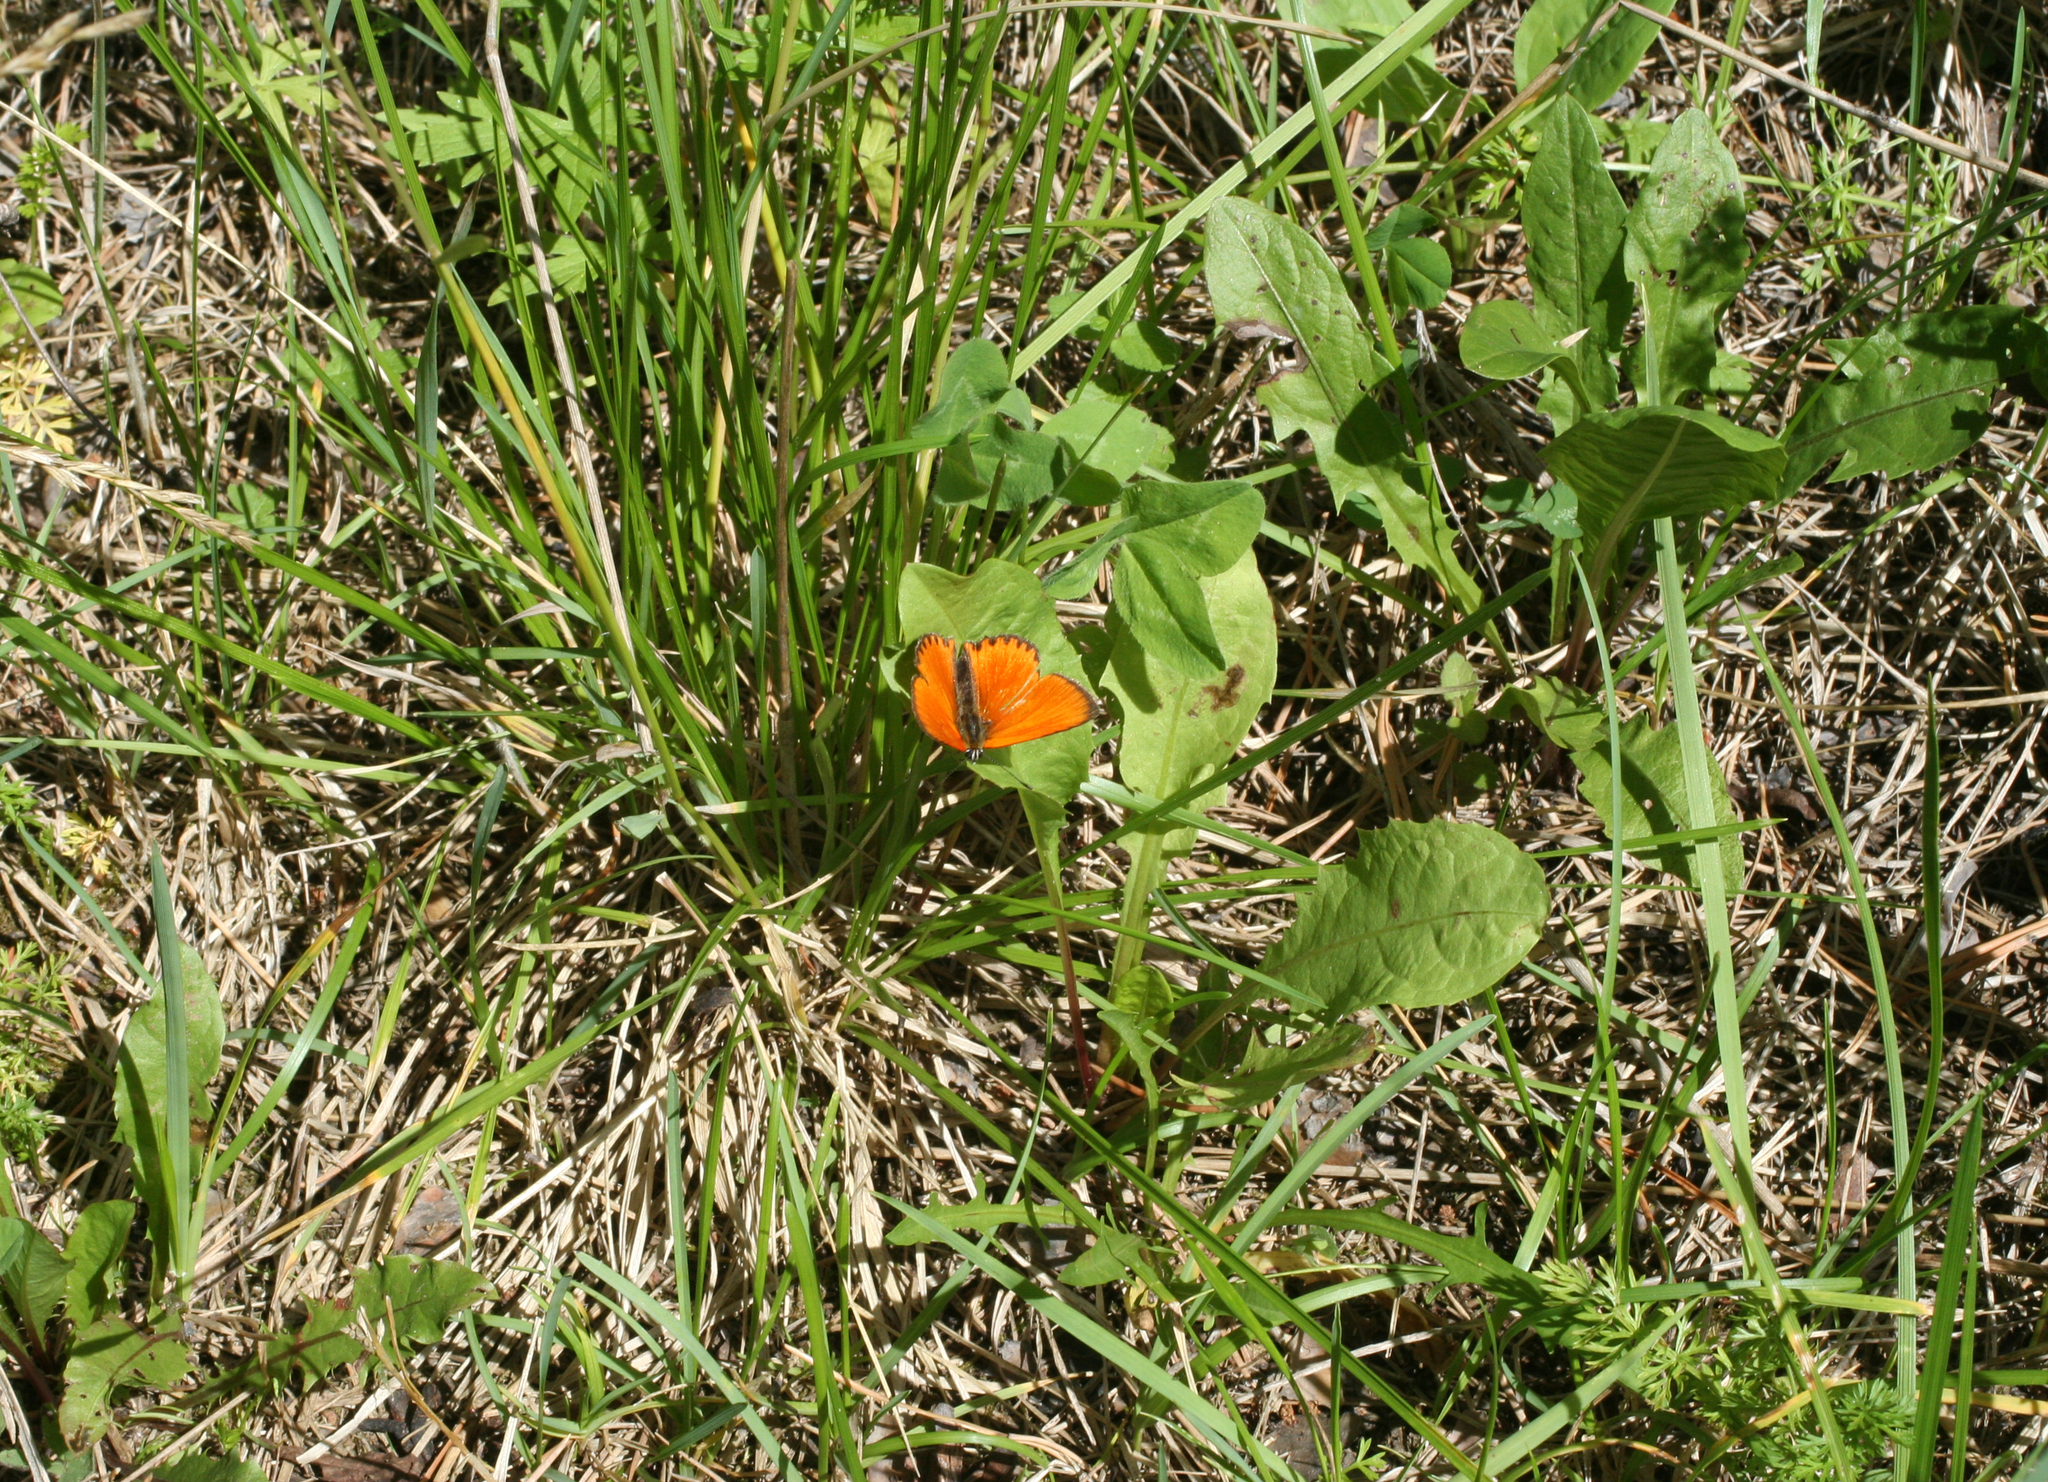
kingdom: Animalia
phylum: Arthropoda
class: Insecta
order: Lepidoptera
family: Lycaenidae
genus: Lycaena
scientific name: Lycaena virgaureae
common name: Scarce copper
